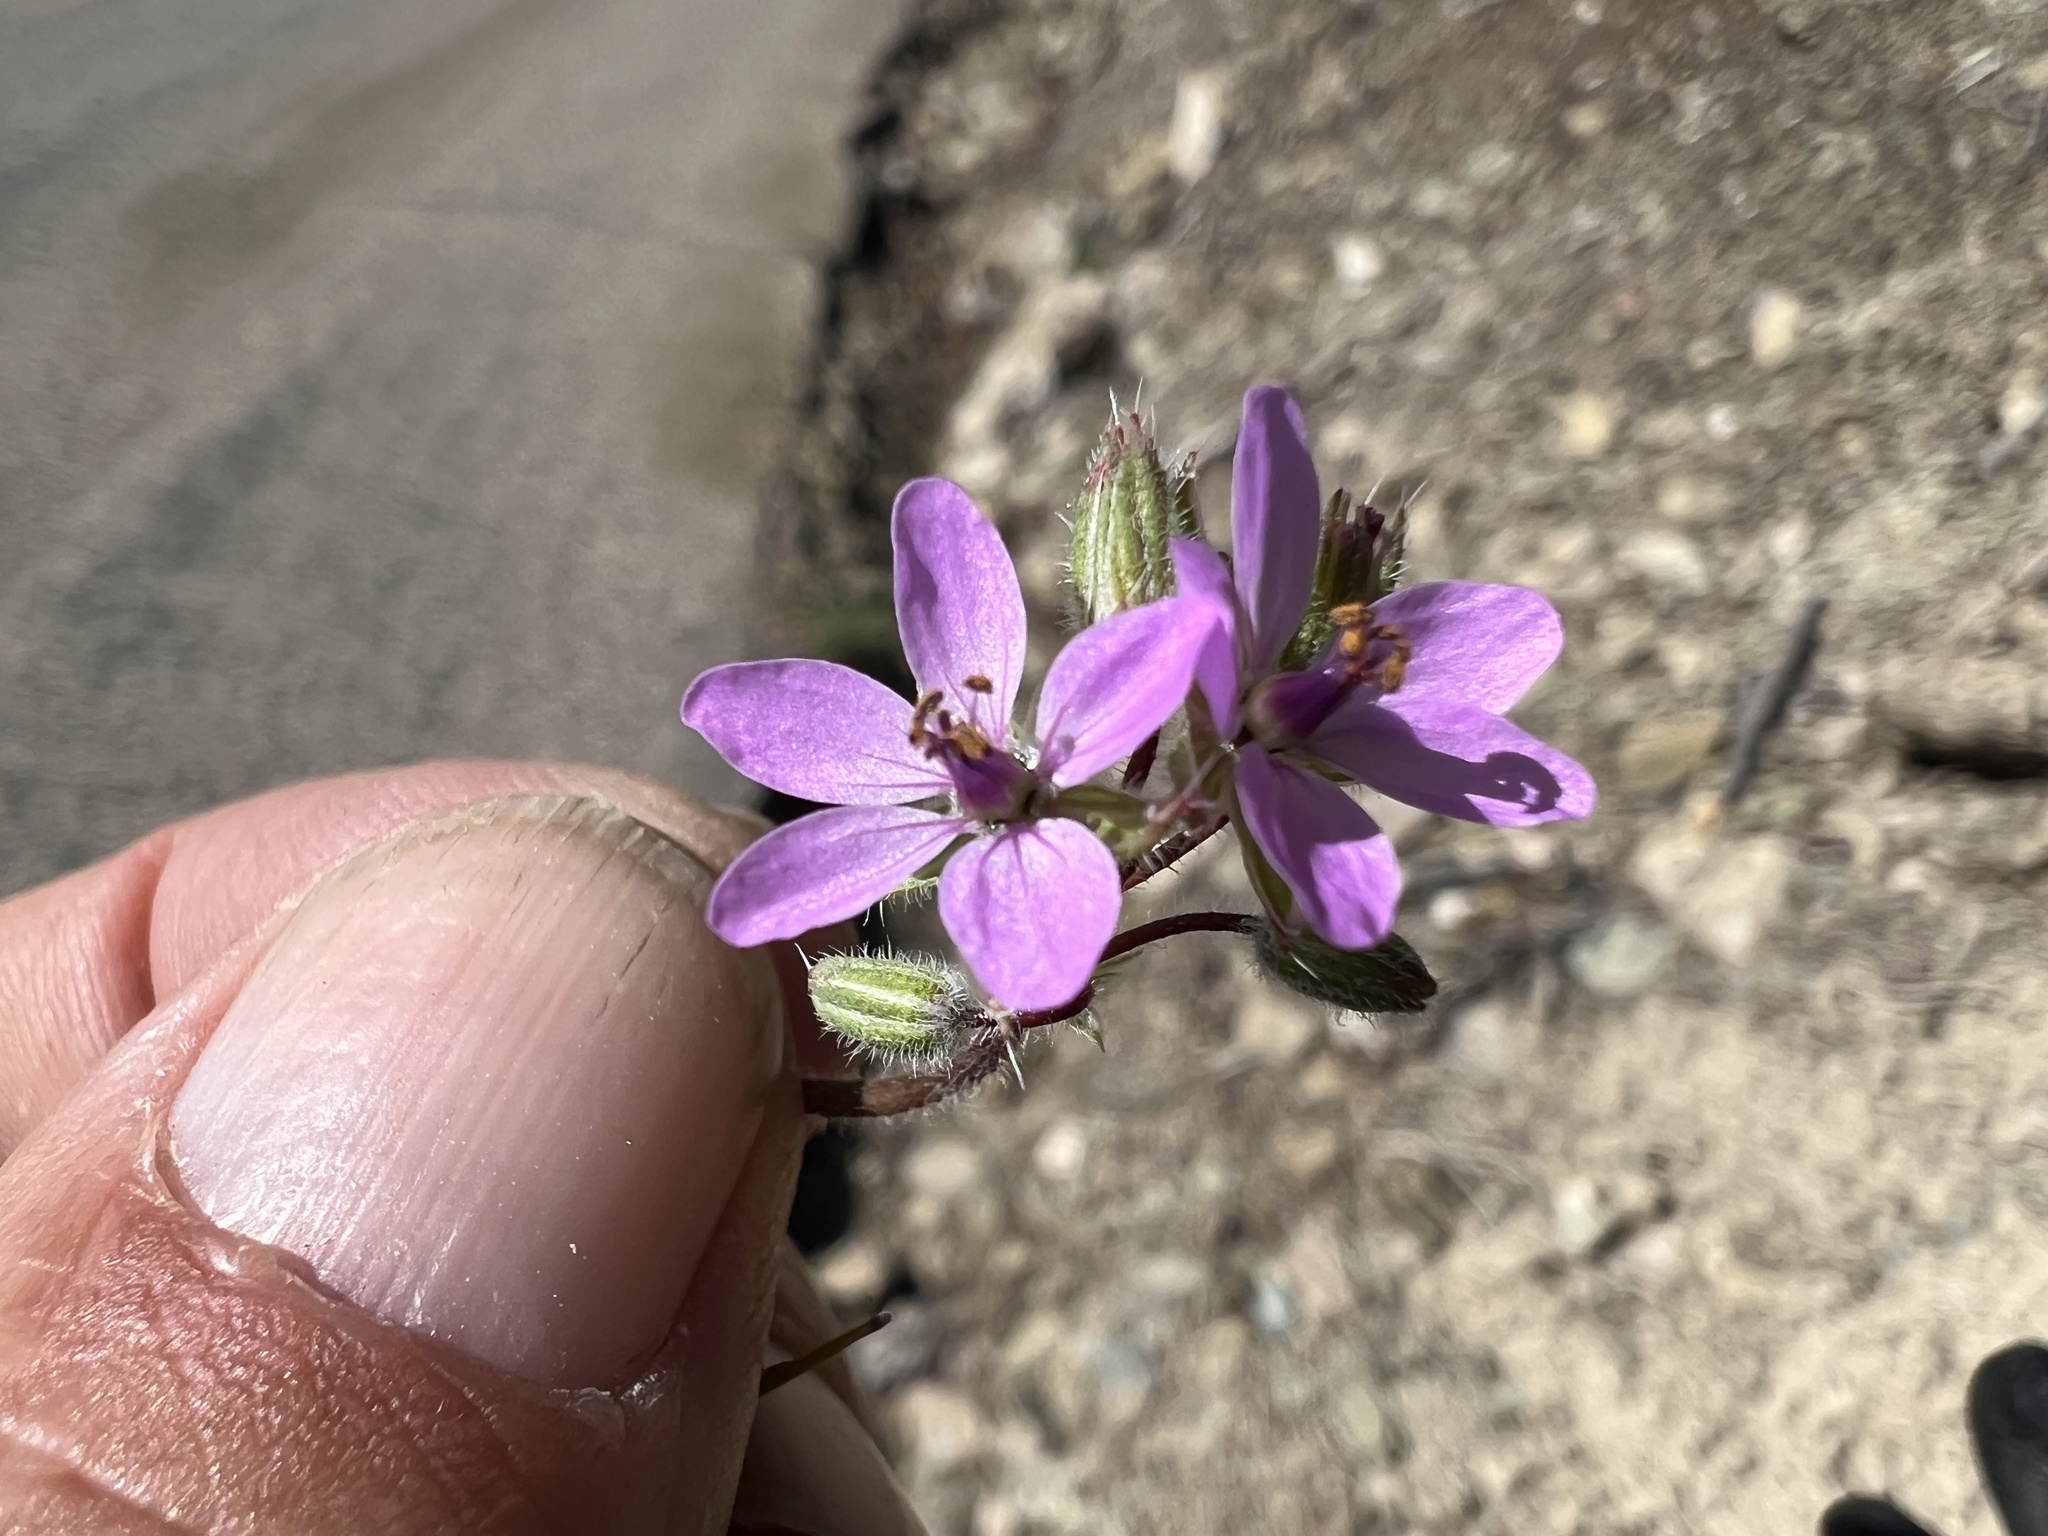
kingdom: Plantae
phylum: Tracheophyta
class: Magnoliopsida
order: Geraniales
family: Geraniaceae
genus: Erodium
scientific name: Erodium cicutarium
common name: Common stork's-bill
